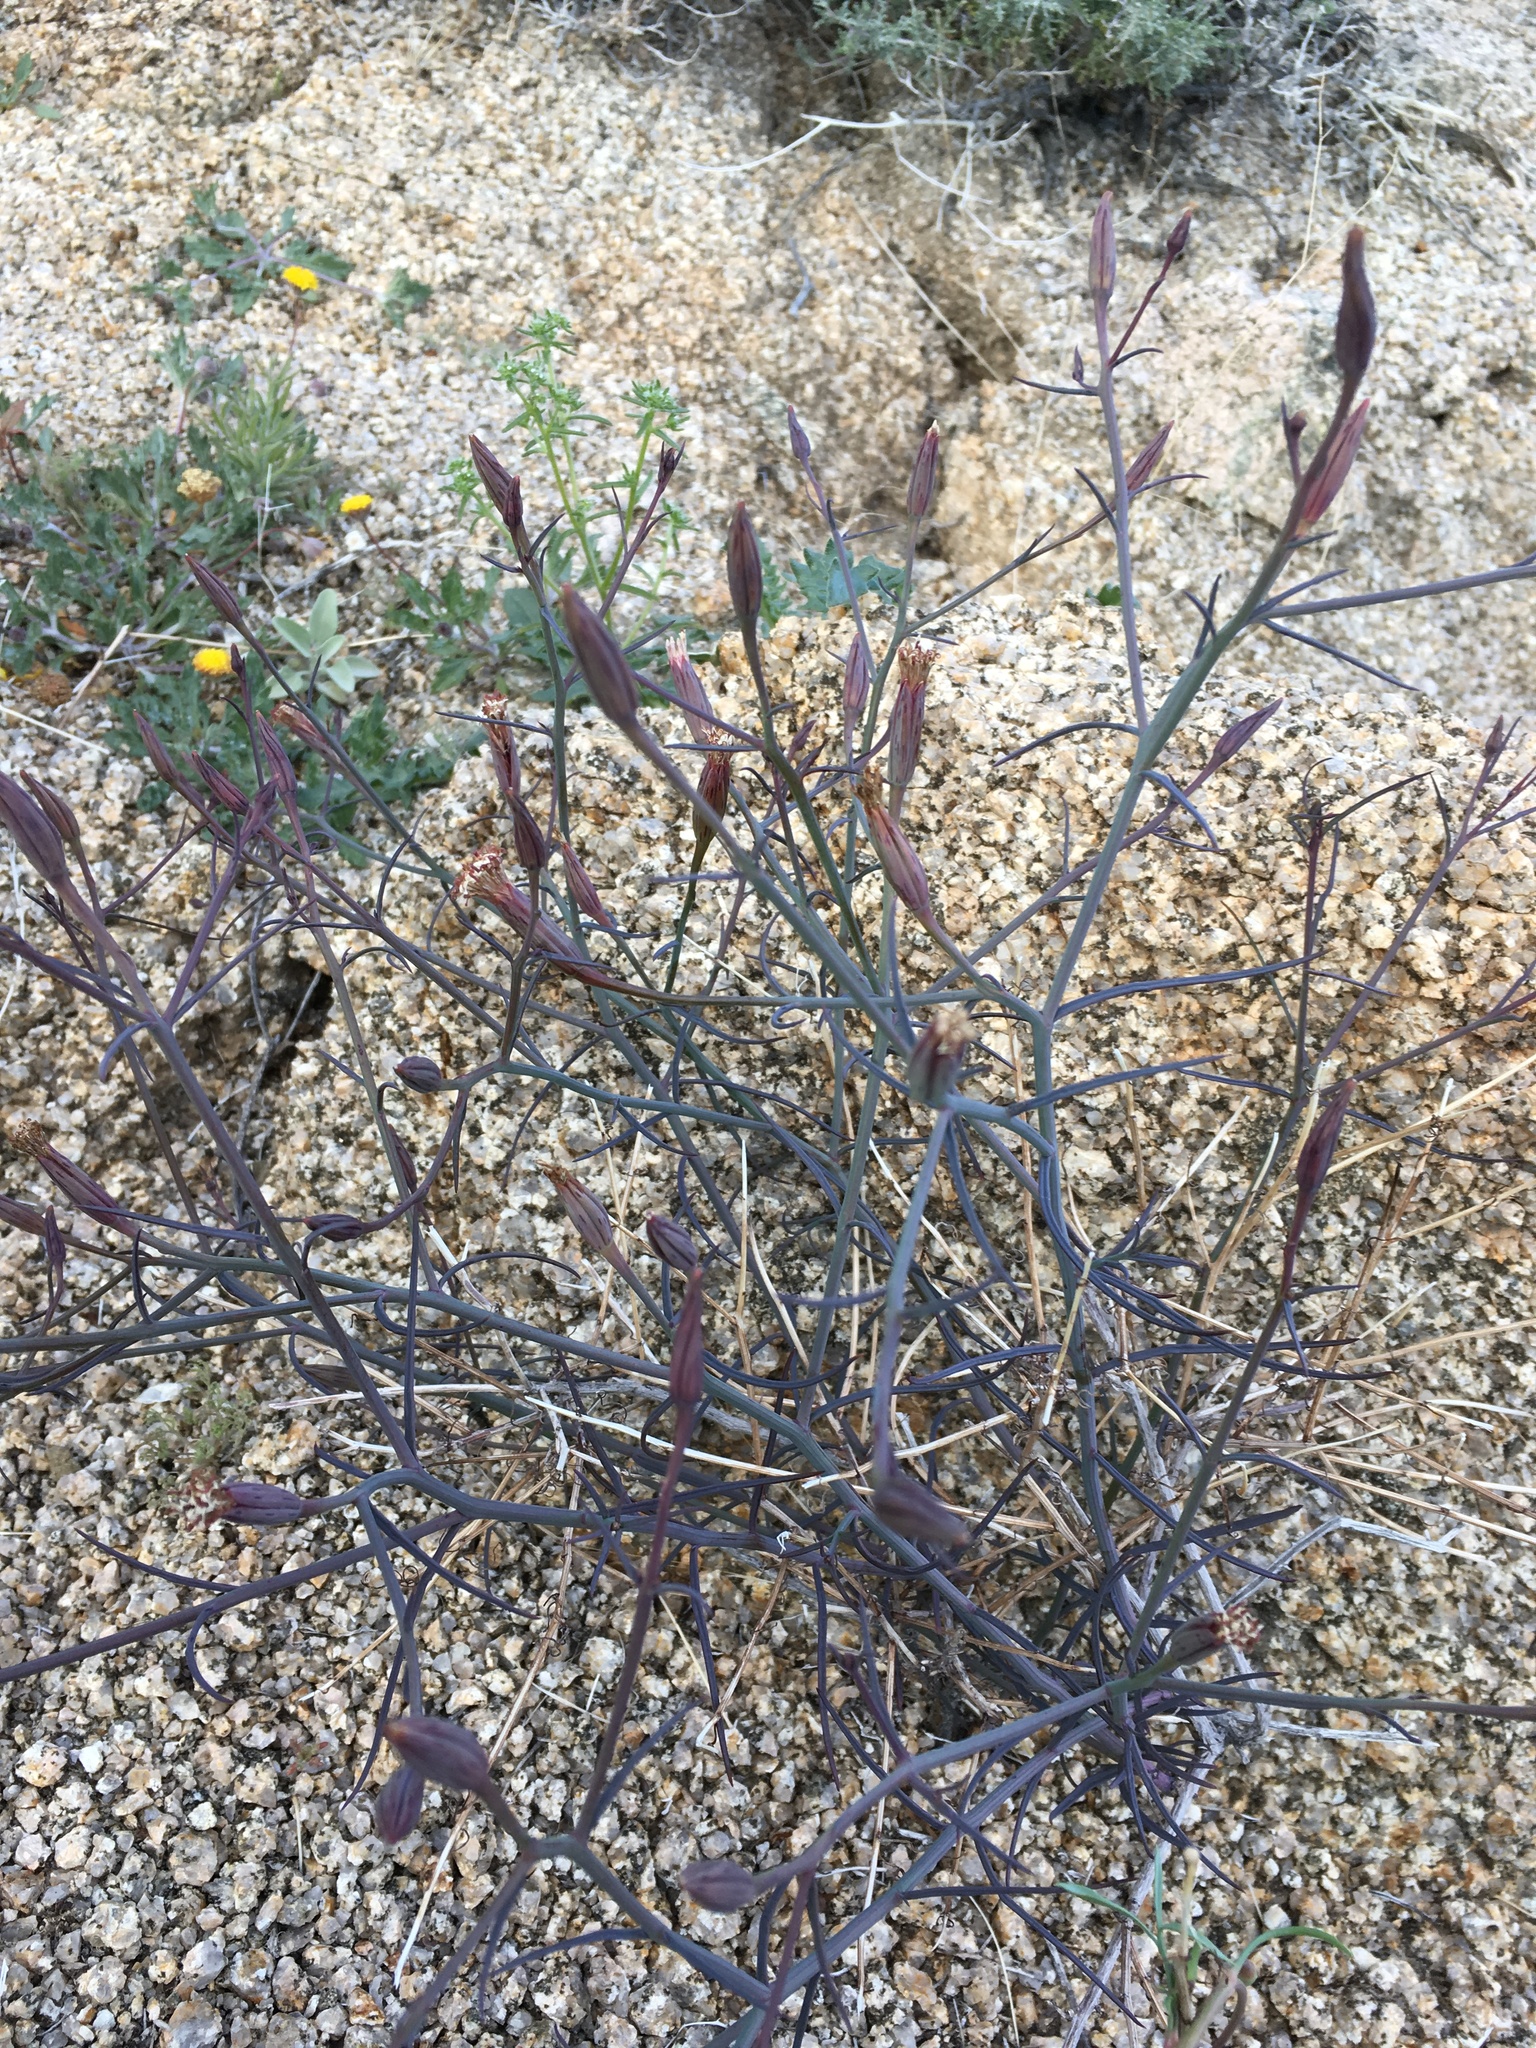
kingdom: Plantae
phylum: Tracheophyta
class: Magnoliopsida
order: Asterales
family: Asteraceae
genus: Porophyllum
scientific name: Porophyllum gracile
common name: Odora
